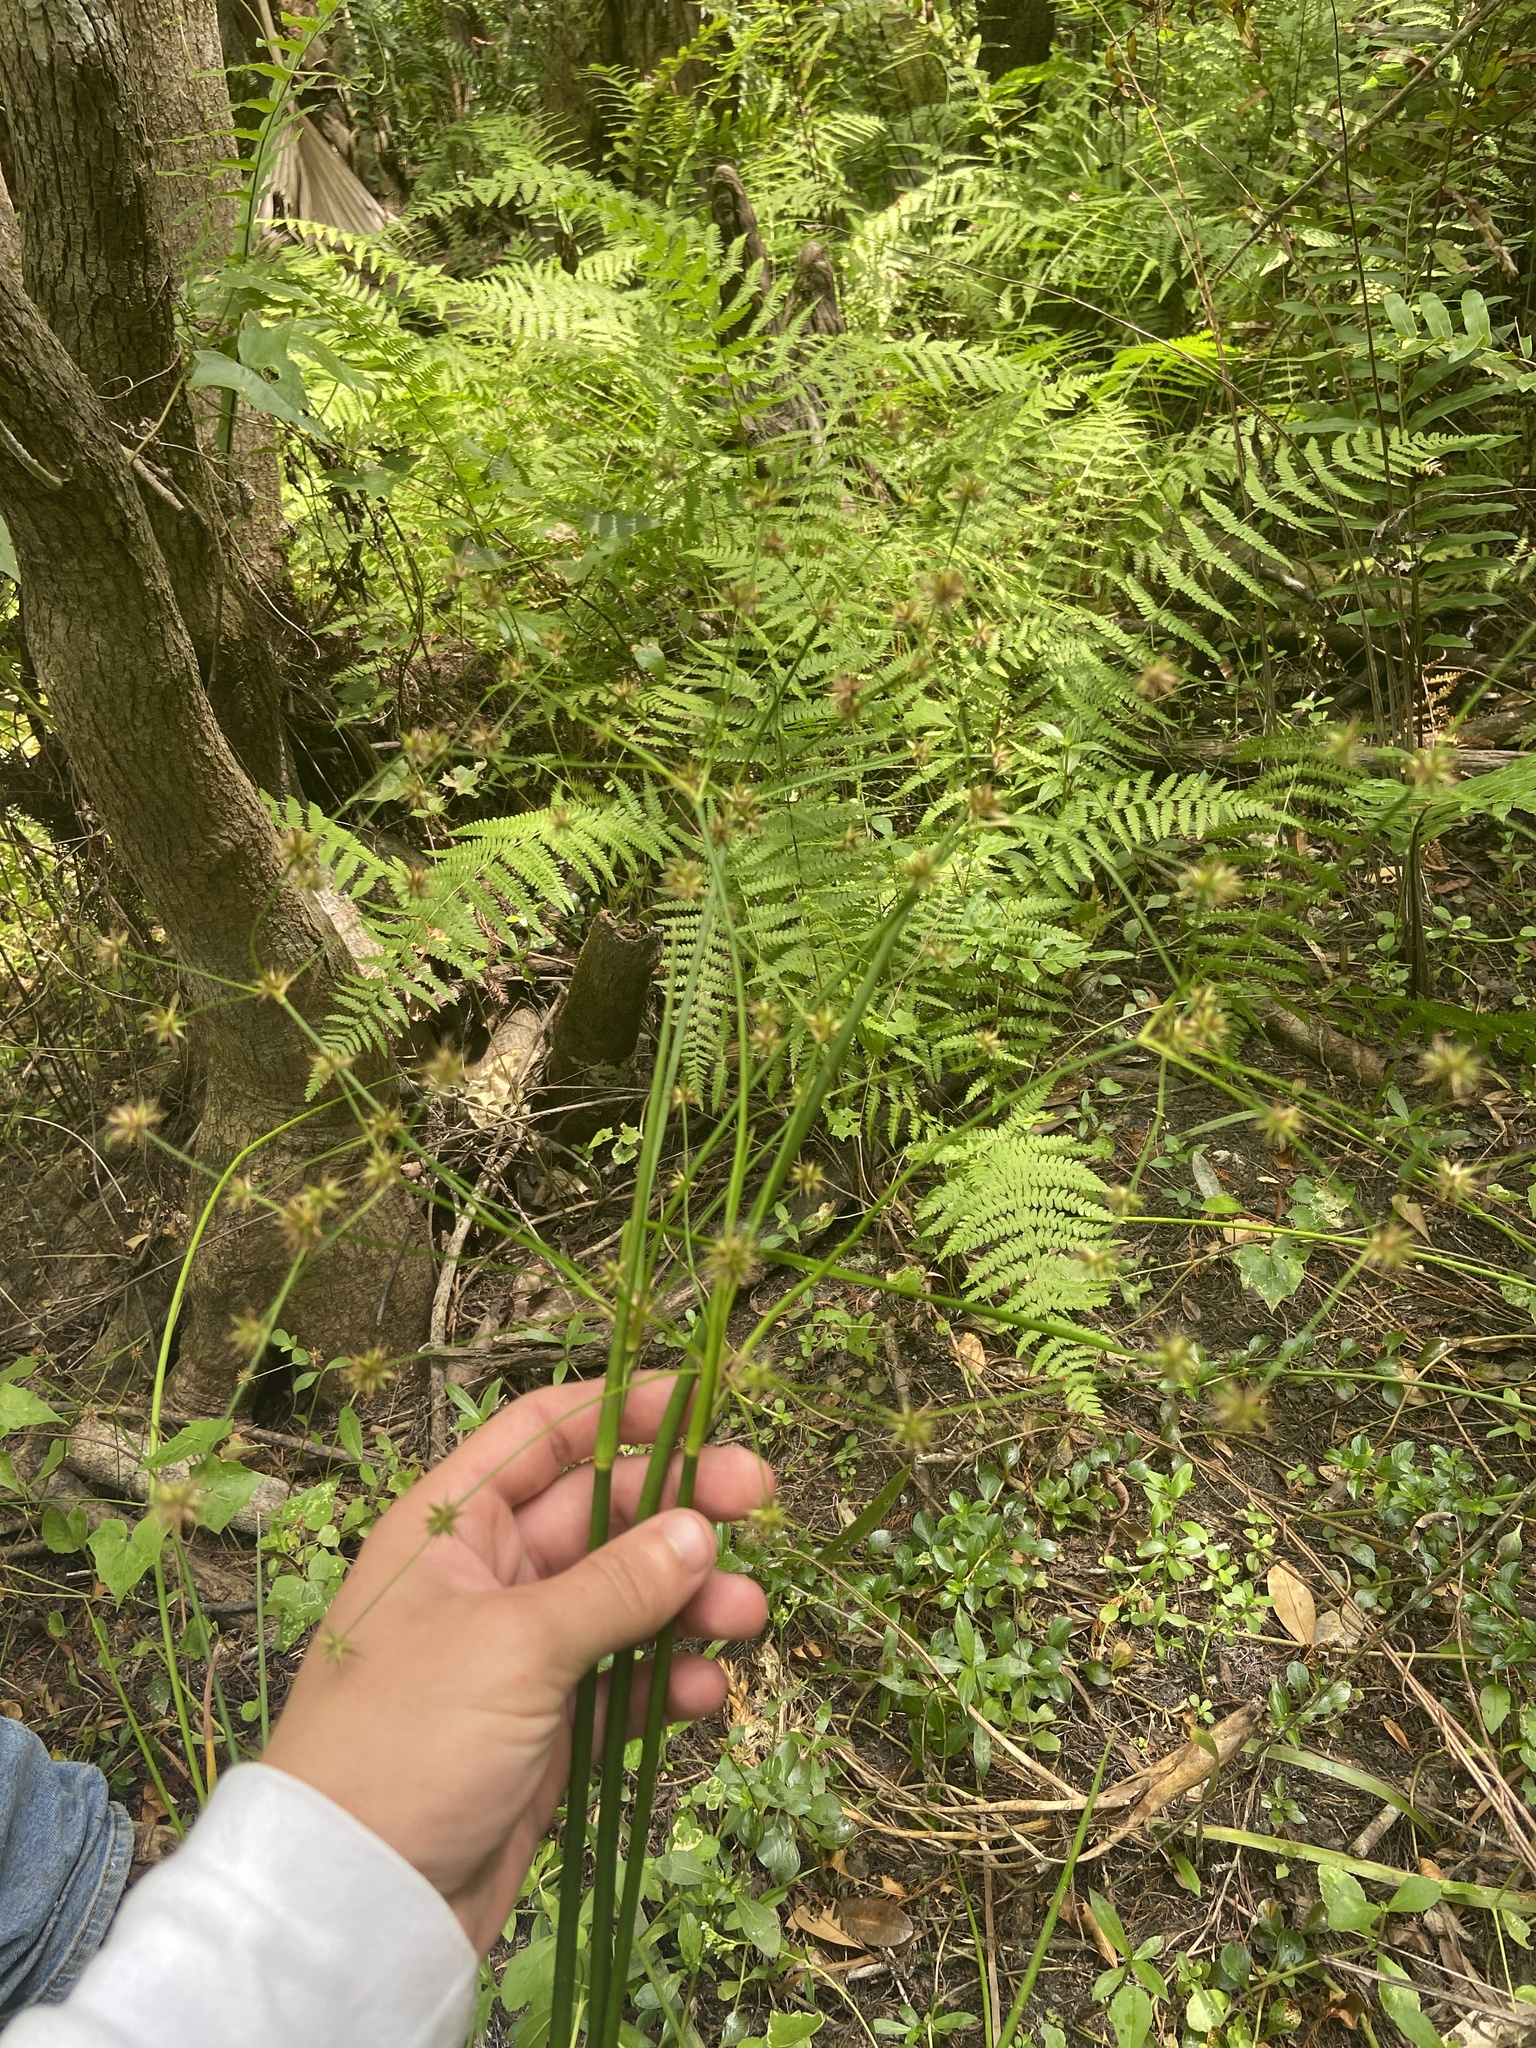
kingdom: Plantae
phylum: Tracheophyta
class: Liliopsida
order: Poales
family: Juncaceae
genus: Juncus
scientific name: Juncus paludosus
